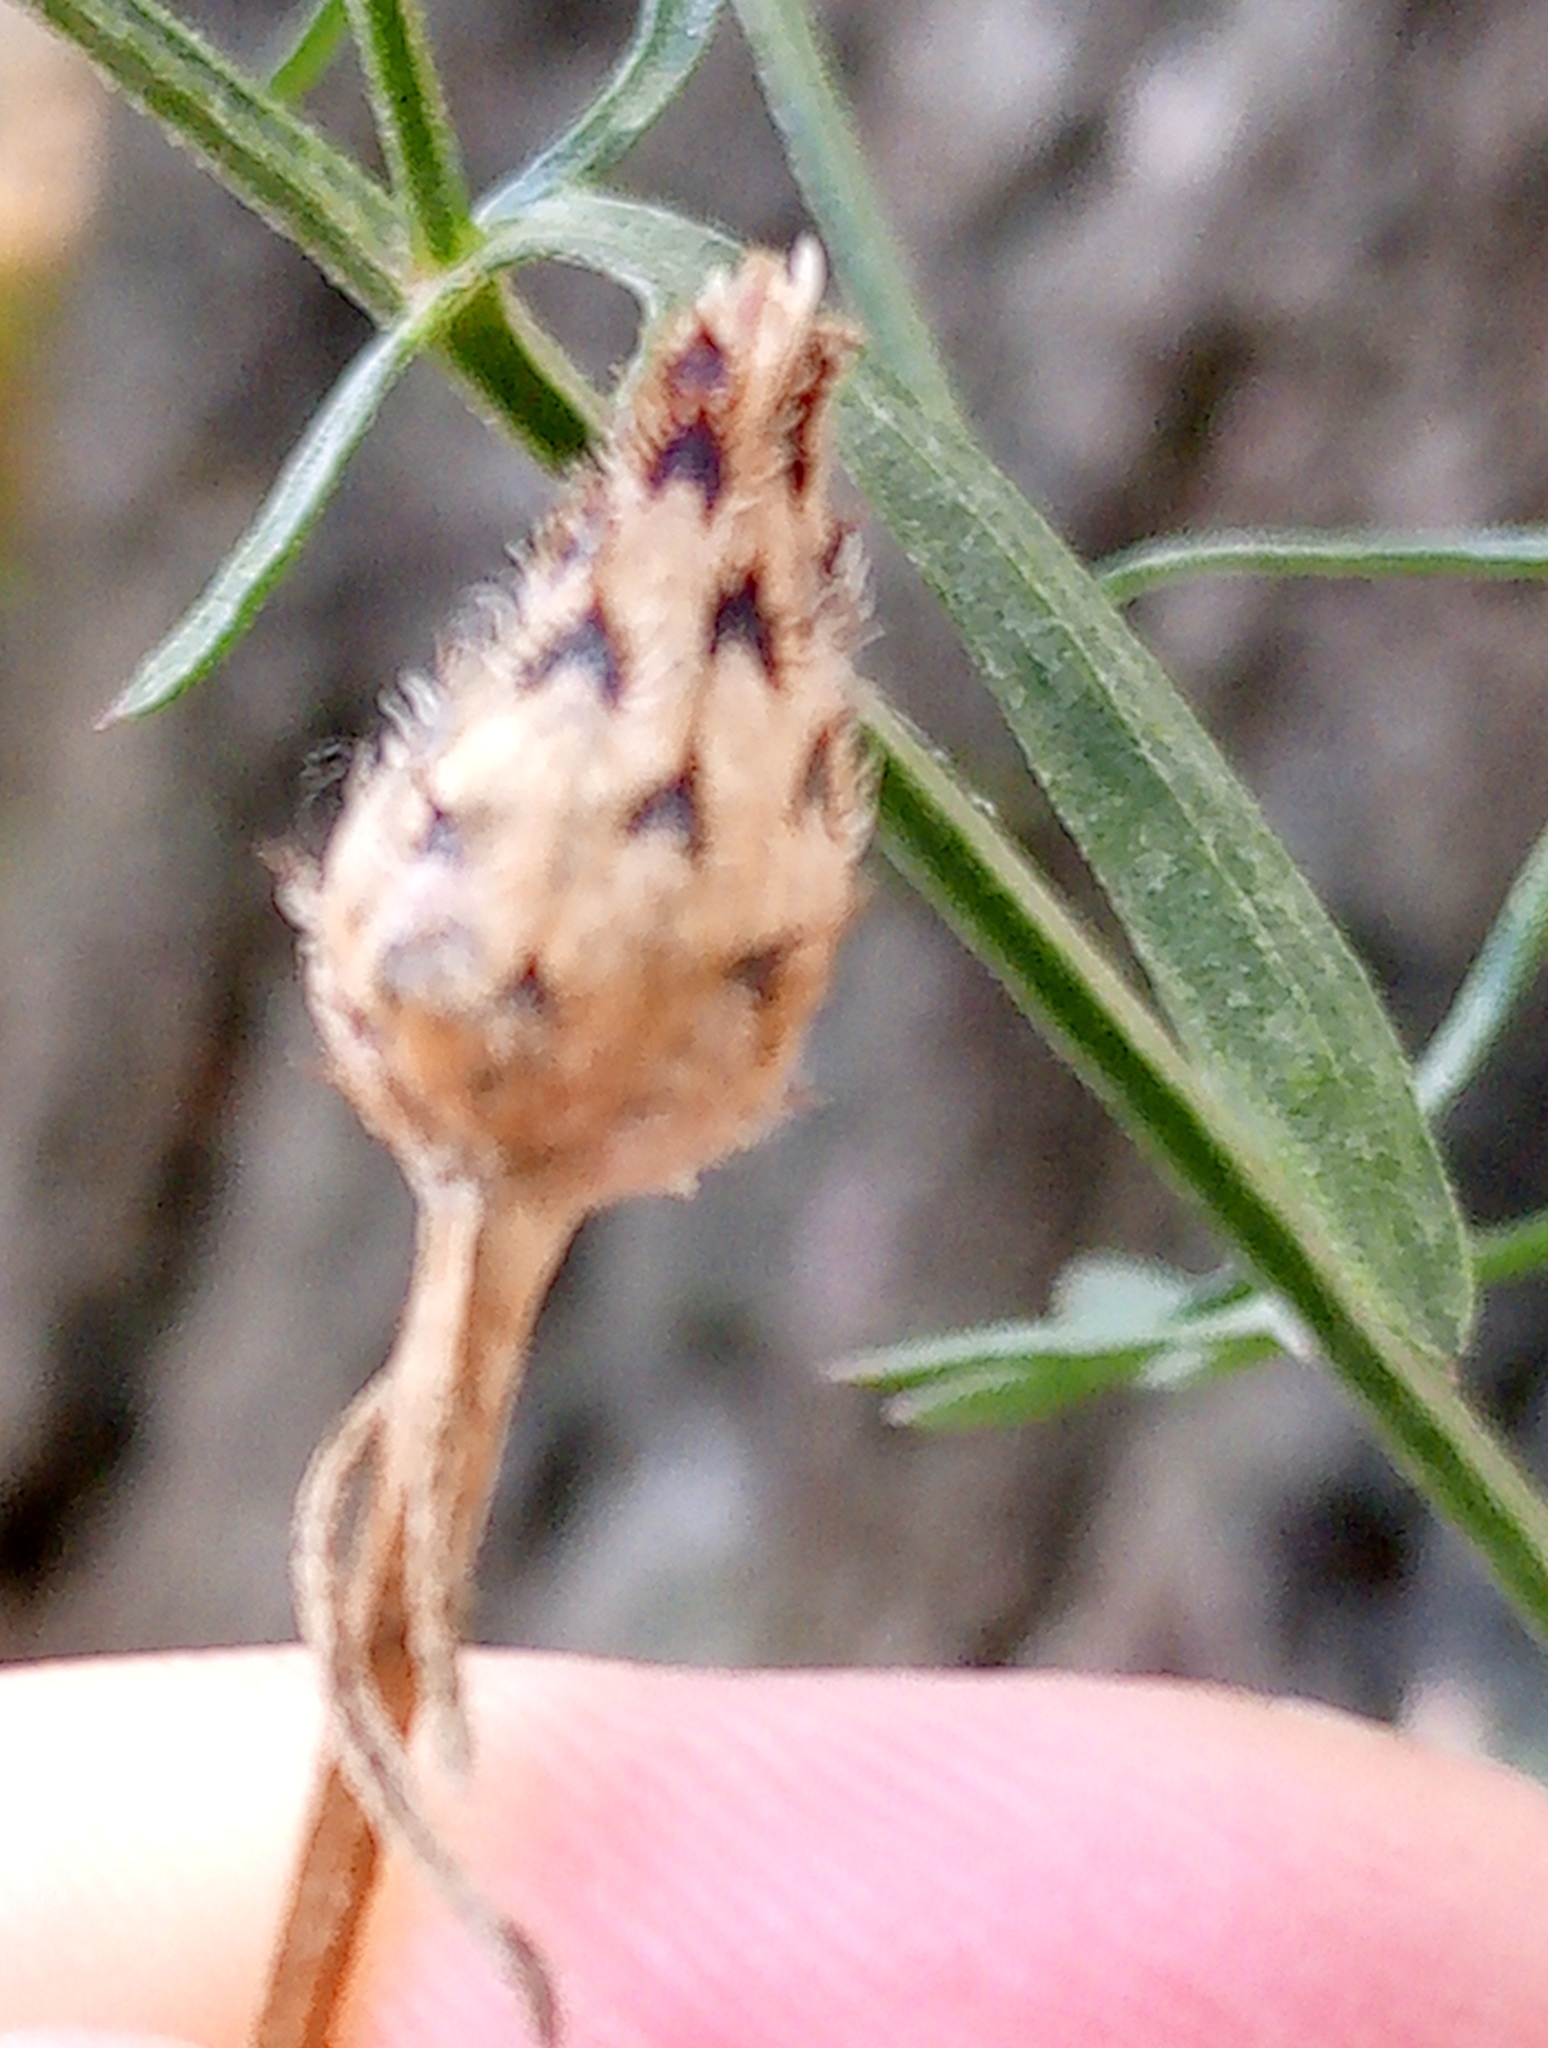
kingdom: Plantae
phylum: Tracheophyta
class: Magnoliopsida
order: Asterales
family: Asteraceae
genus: Centaurea
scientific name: Centaurea stoebe
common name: Spotted knapweed
